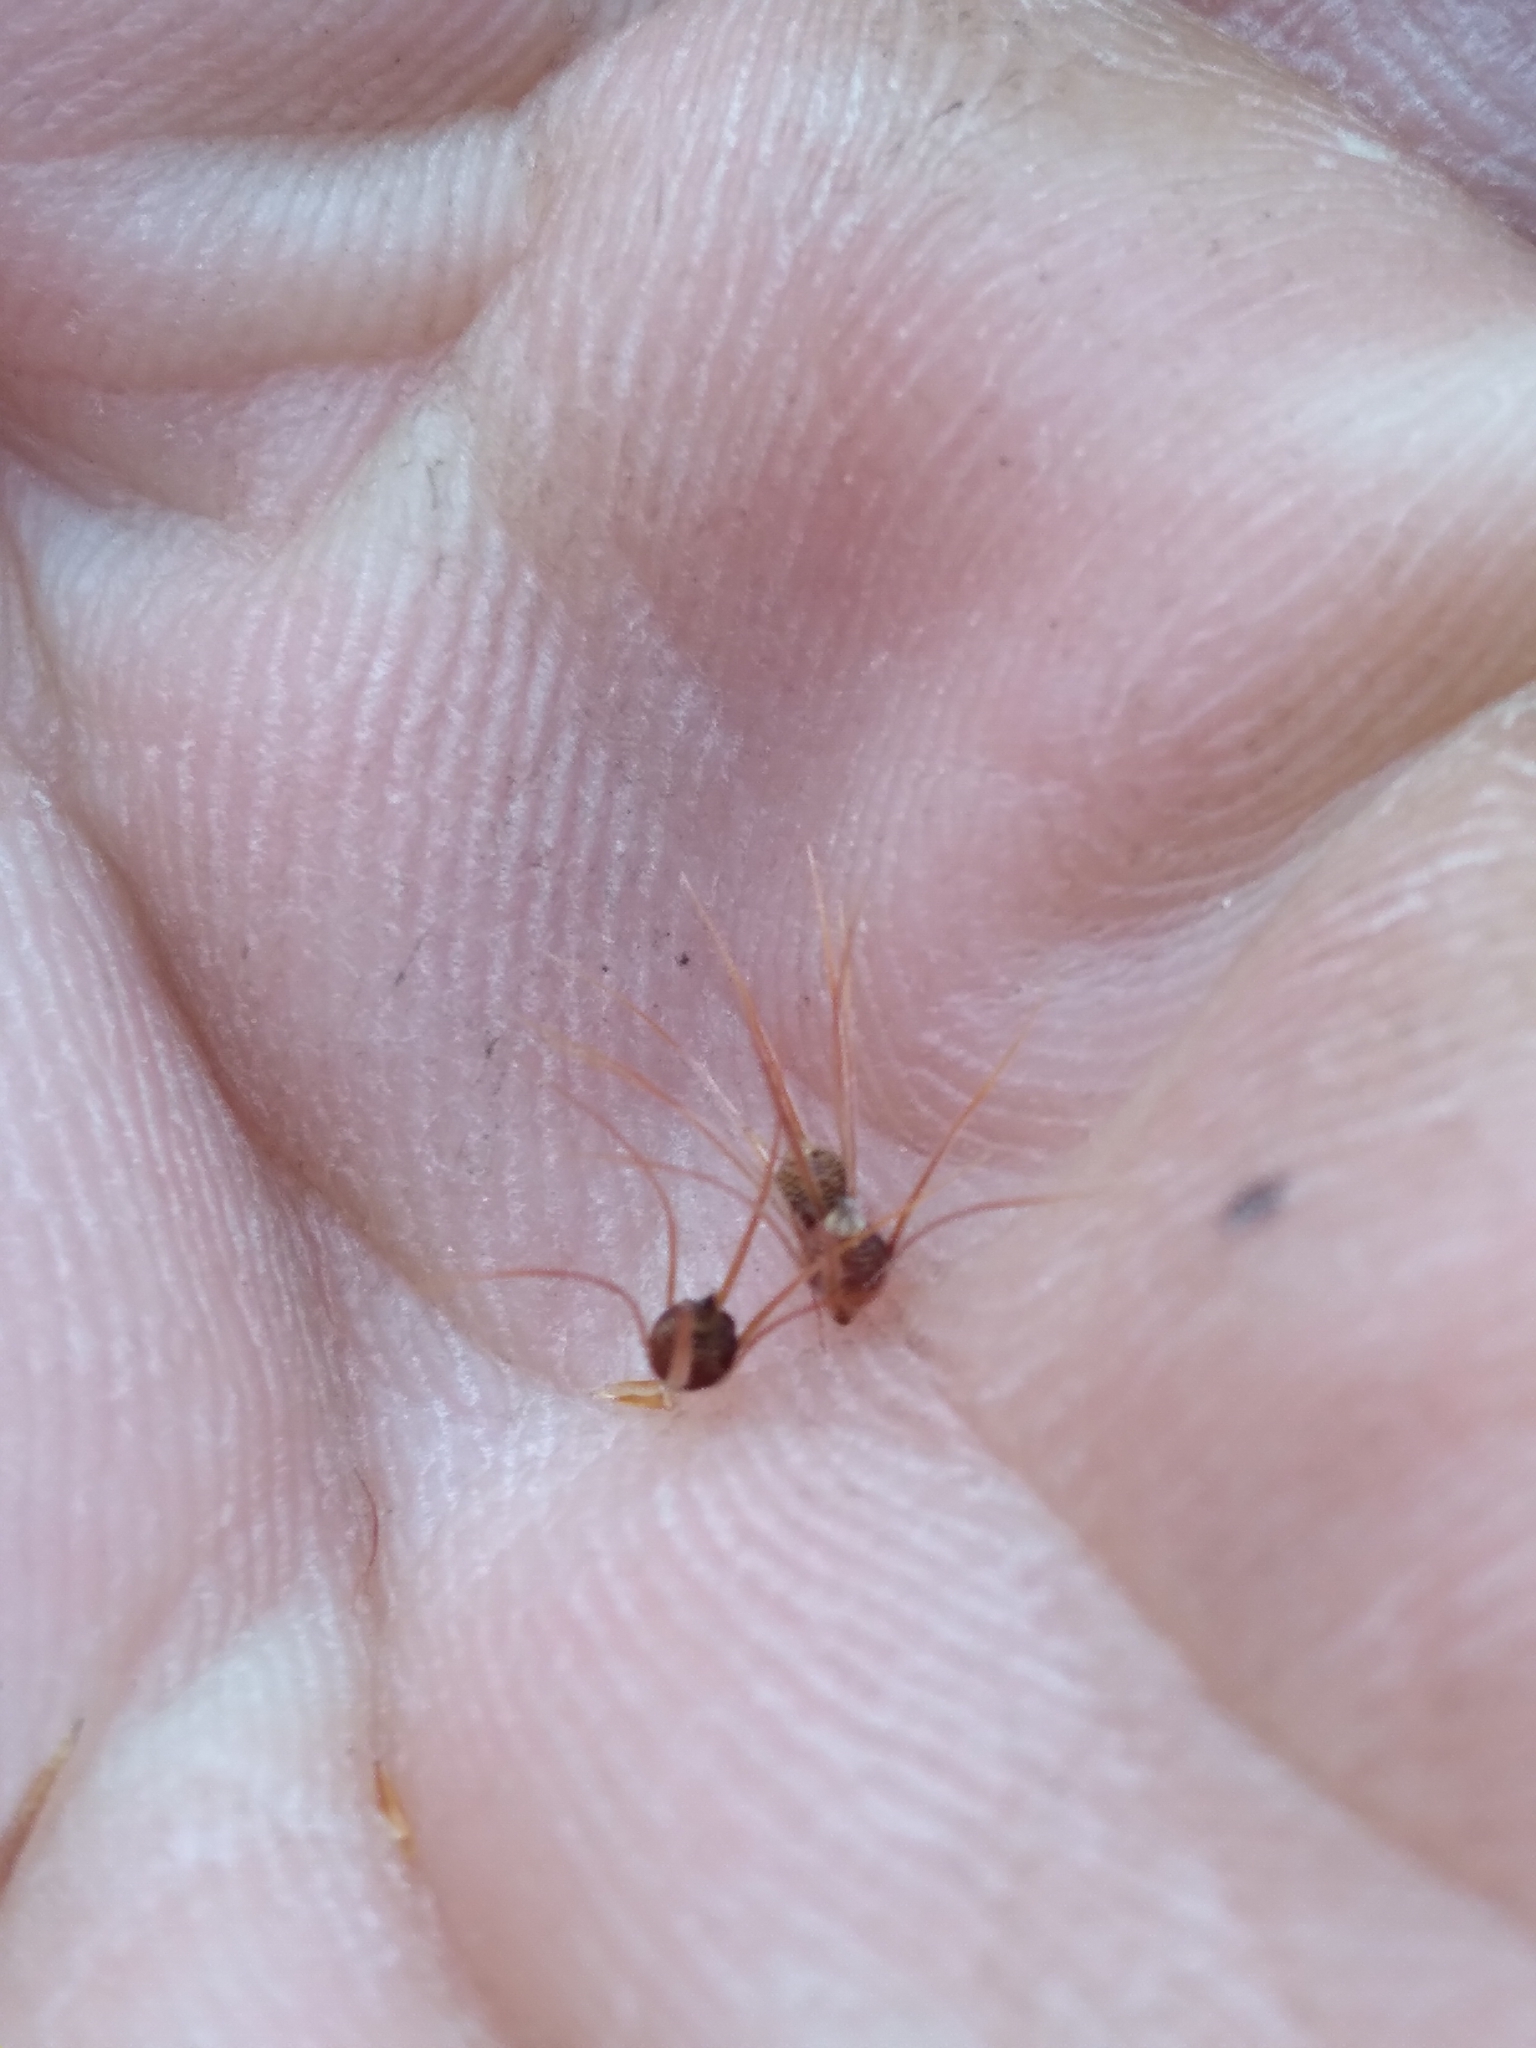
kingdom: Plantae
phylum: Tracheophyta
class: Liliopsida
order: Poales
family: Cyperaceae
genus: Rhynchospora
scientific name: Rhynchospora megaplumosa
